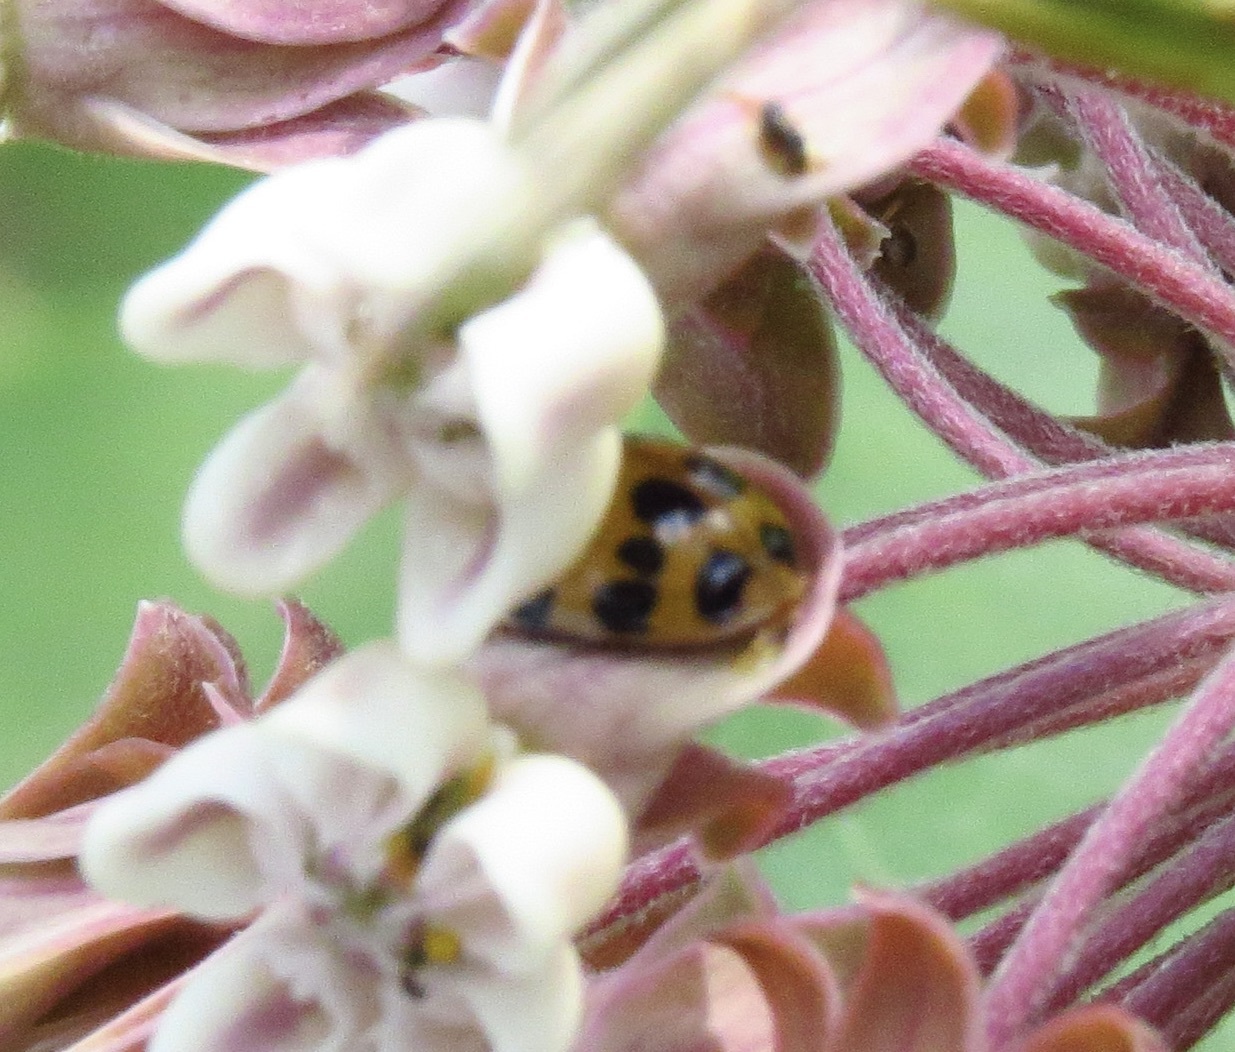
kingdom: Animalia
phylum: Arthropoda
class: Insecta
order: Coleoptera
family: Coccinellidae
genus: Harmonia
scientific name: Harmonia axyridis
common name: Harlequin ladybird
